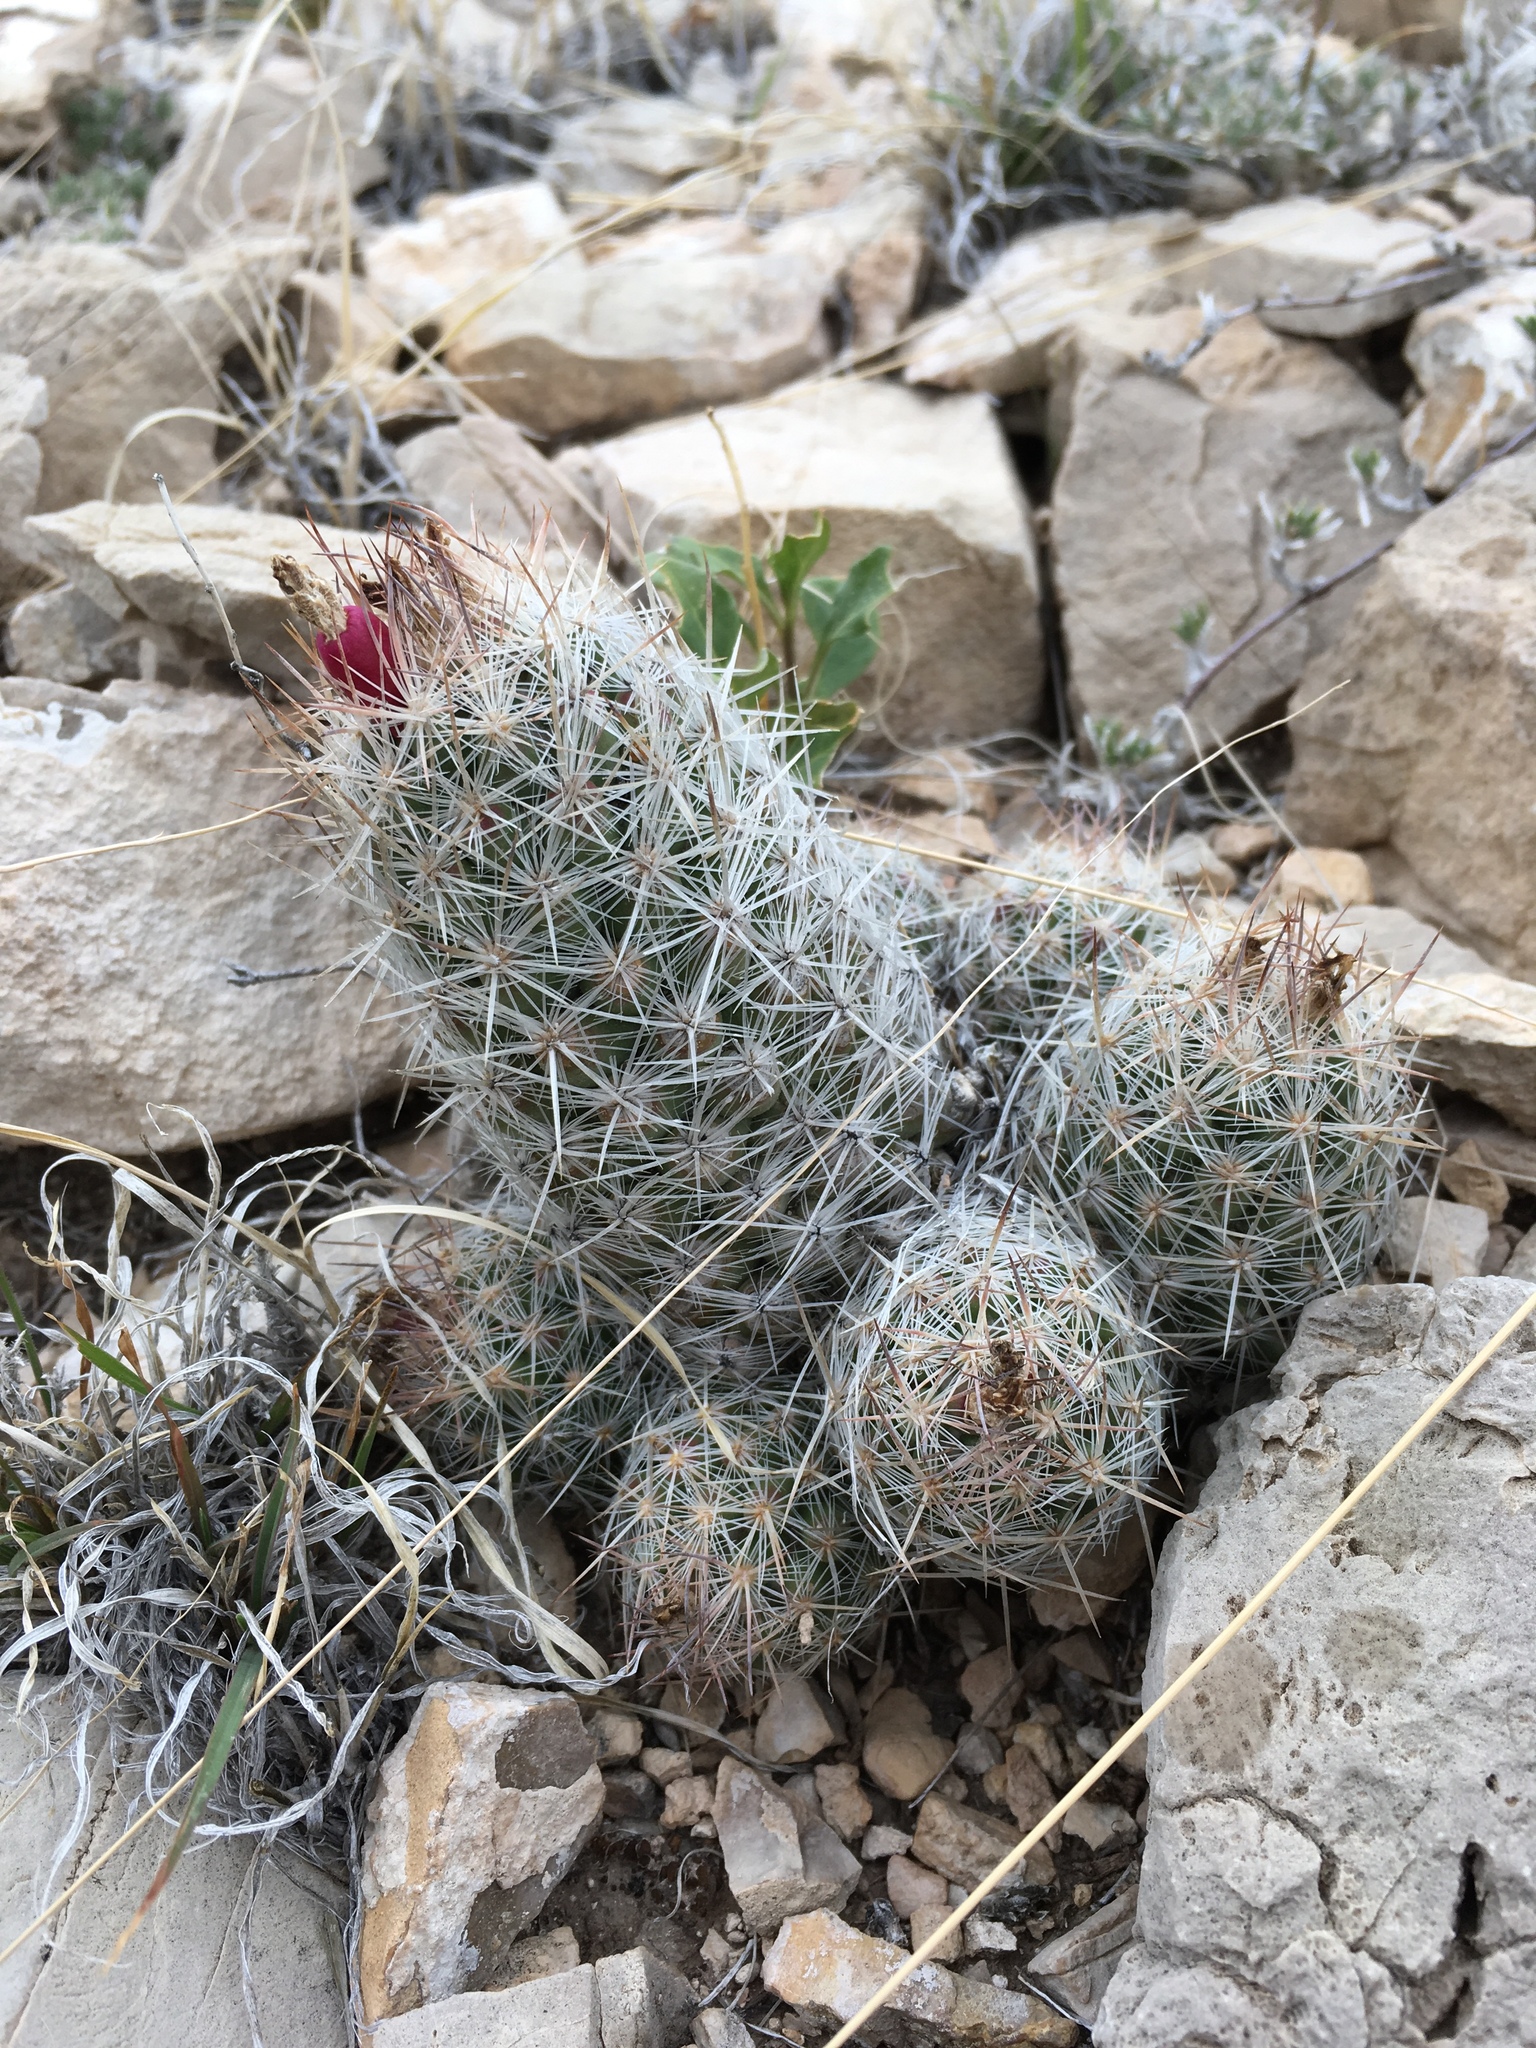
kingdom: Plantae
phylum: Tracheophyta
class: Magnoliopsida
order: Caryophyllales
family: Cactaceae
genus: Pelecyphora
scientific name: Pelecyphora tuberculosa
